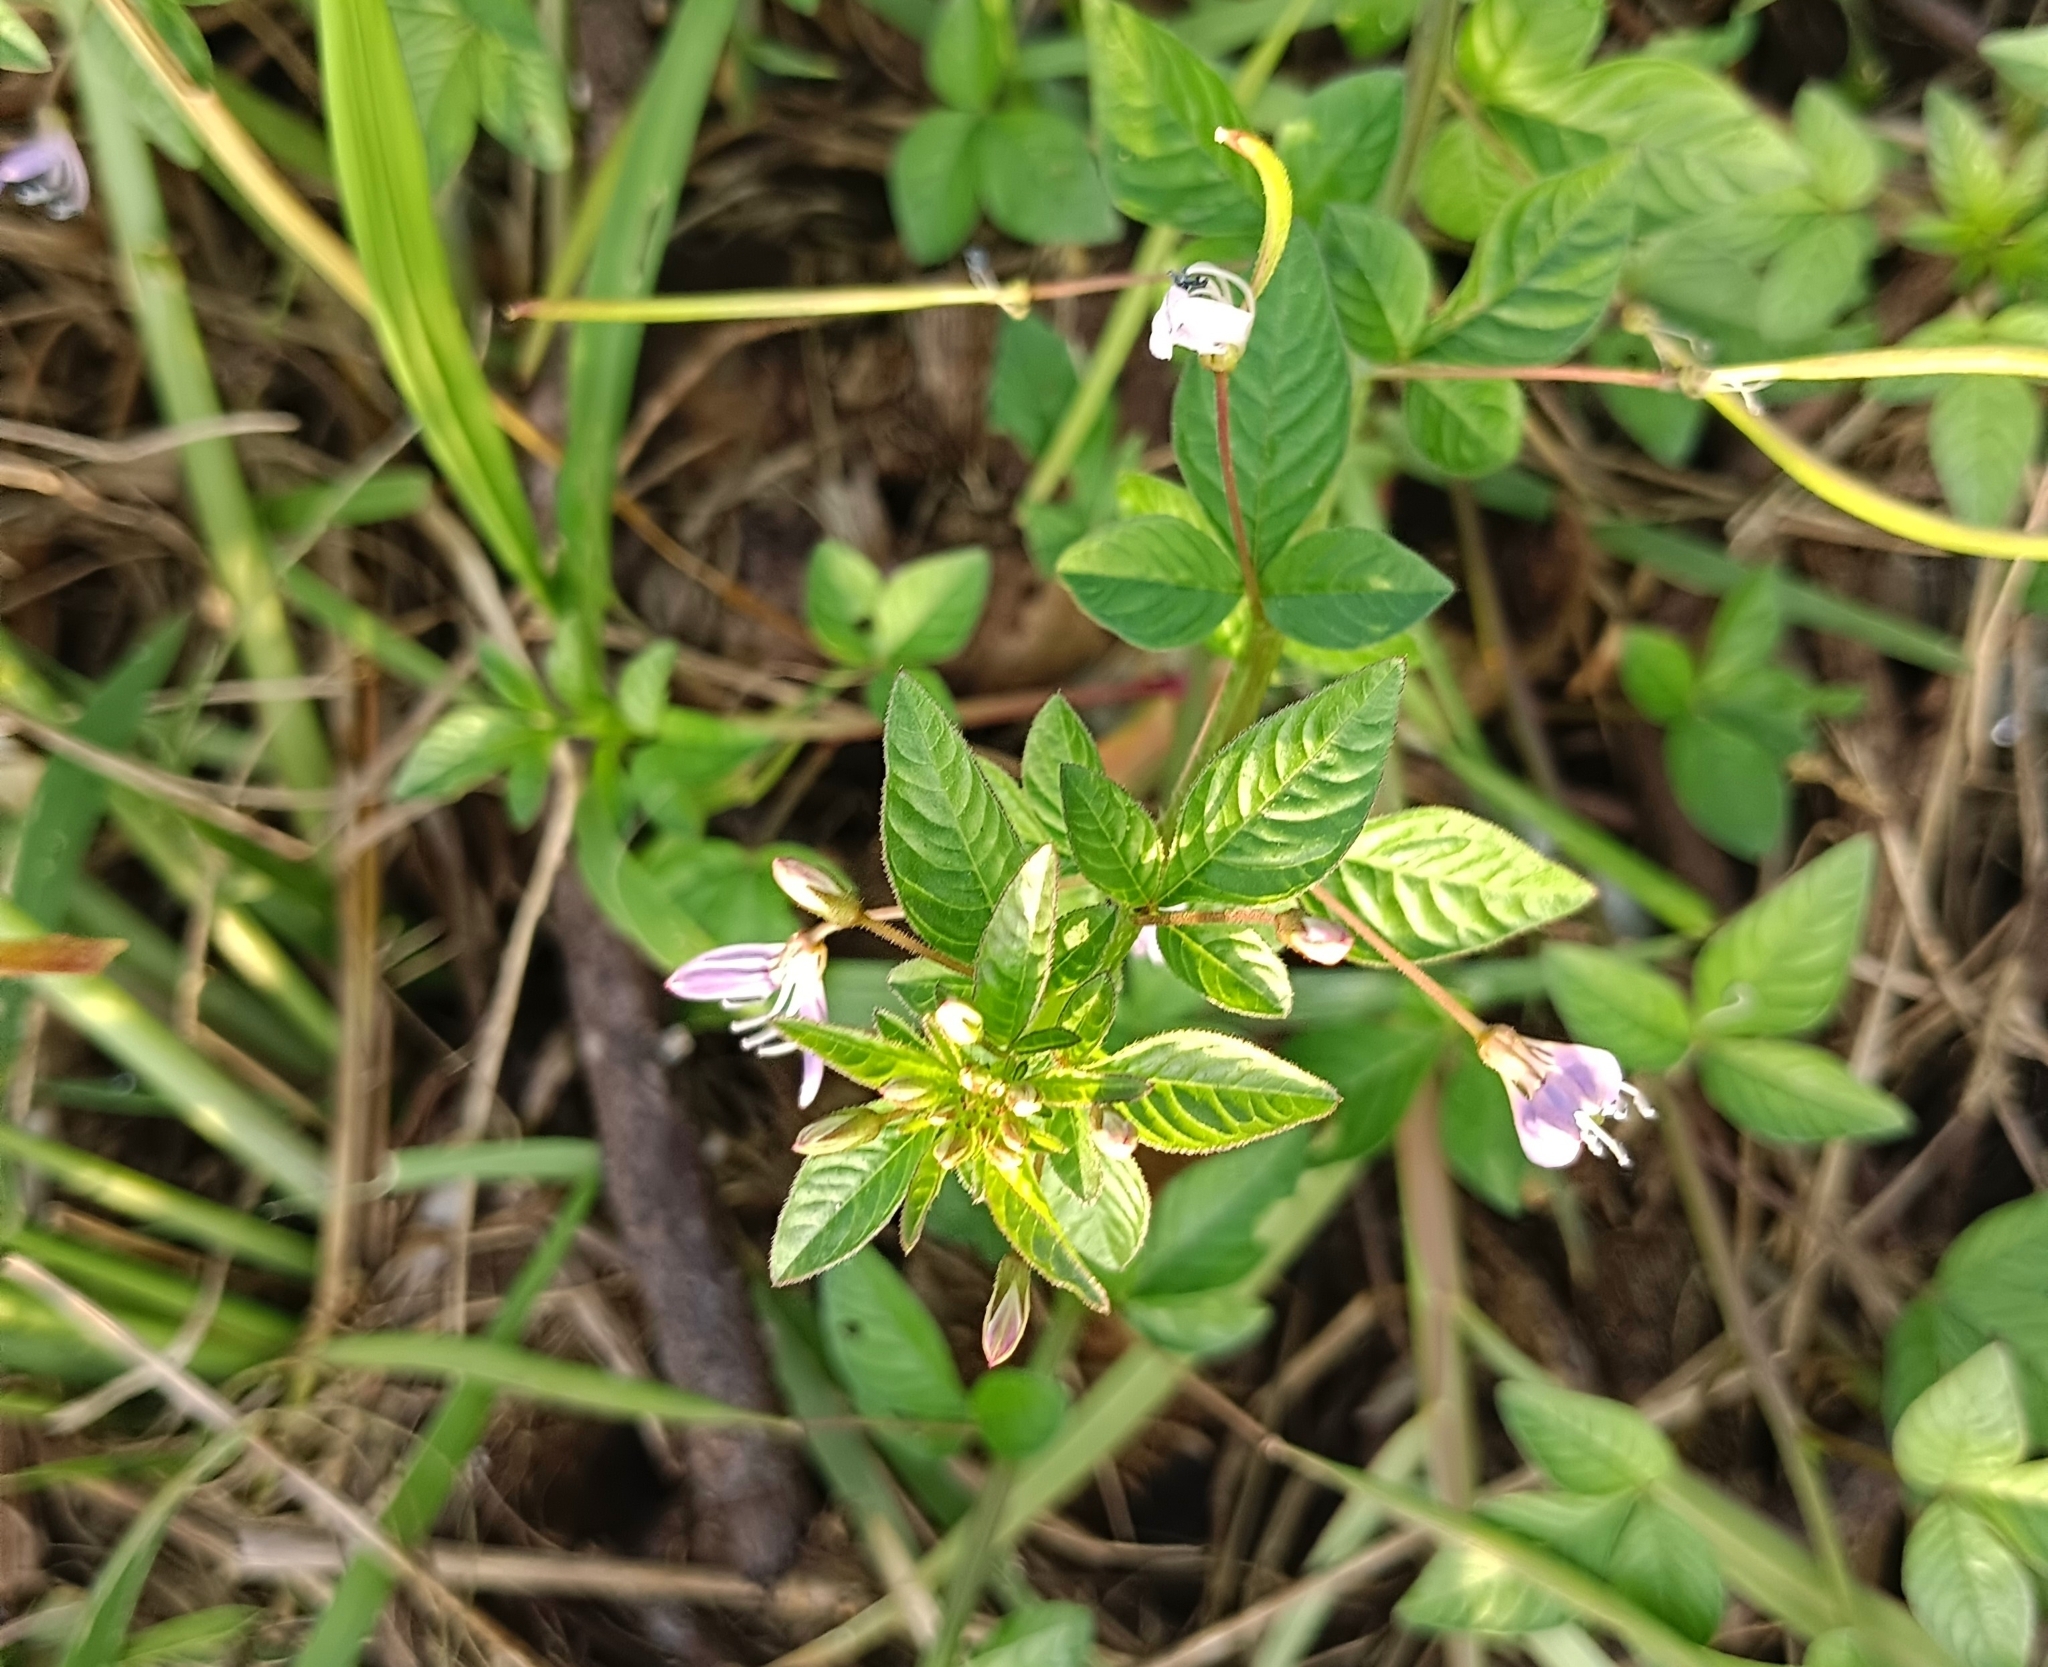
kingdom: Plantae
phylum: Tracheophyta
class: Magnoliopsida
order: Brassicales
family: Cleomaceae
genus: Sieruela
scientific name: Sieruela rutidosperma
